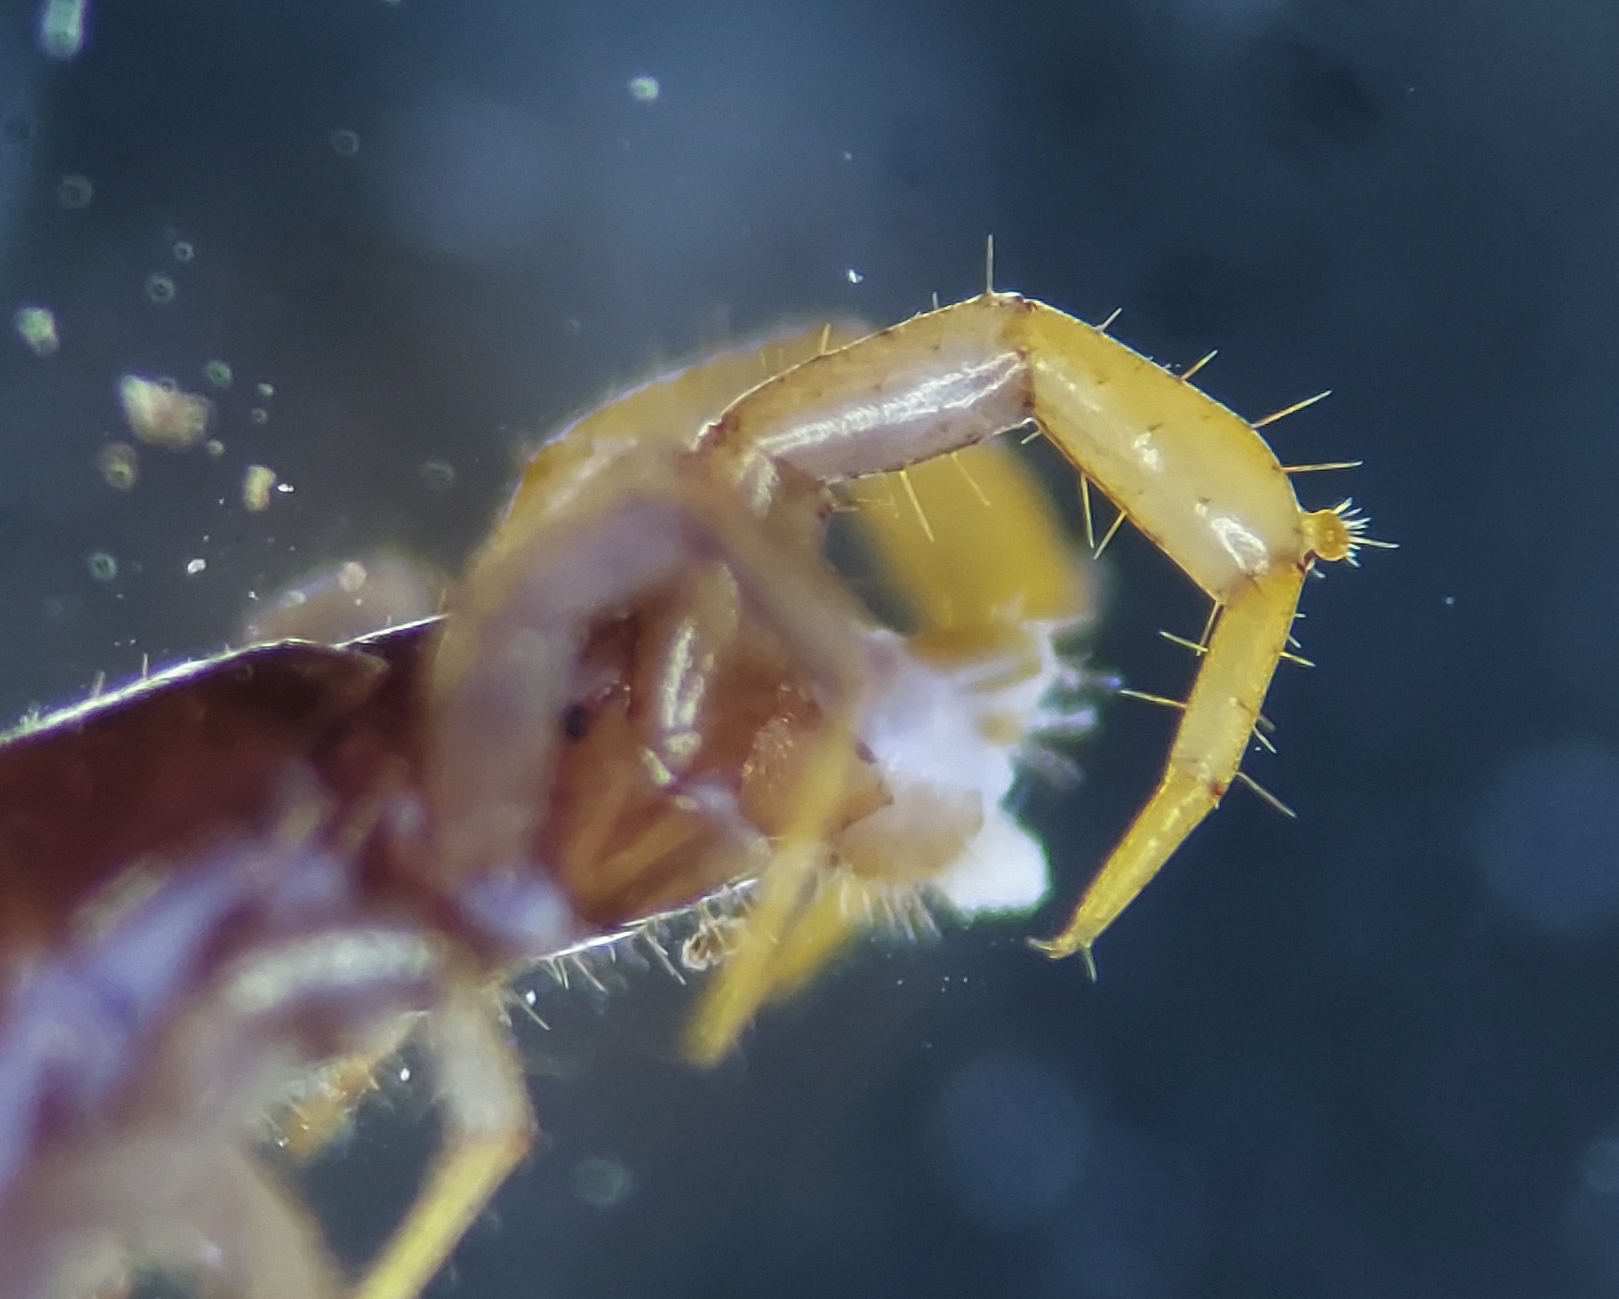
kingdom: Animalia
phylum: Arthropoda
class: Chilopoda
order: Lithobiomorpha
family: Lithobiidae
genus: Nampabius
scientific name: Nampabius fungiferopes
